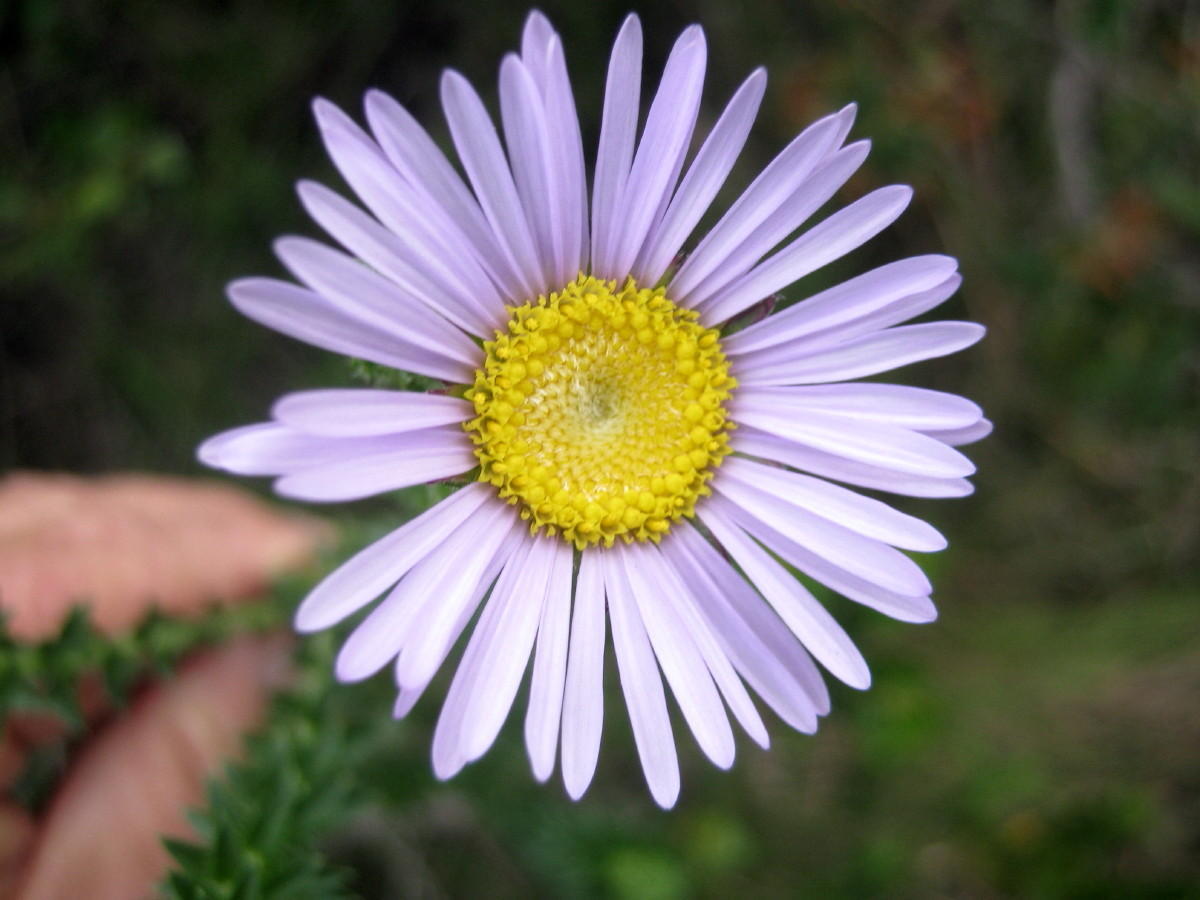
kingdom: Plantae
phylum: Tracheophyta
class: Magnoliopsida
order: Asterales
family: Asteraceae
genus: Felicia
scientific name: Felicia echinata
